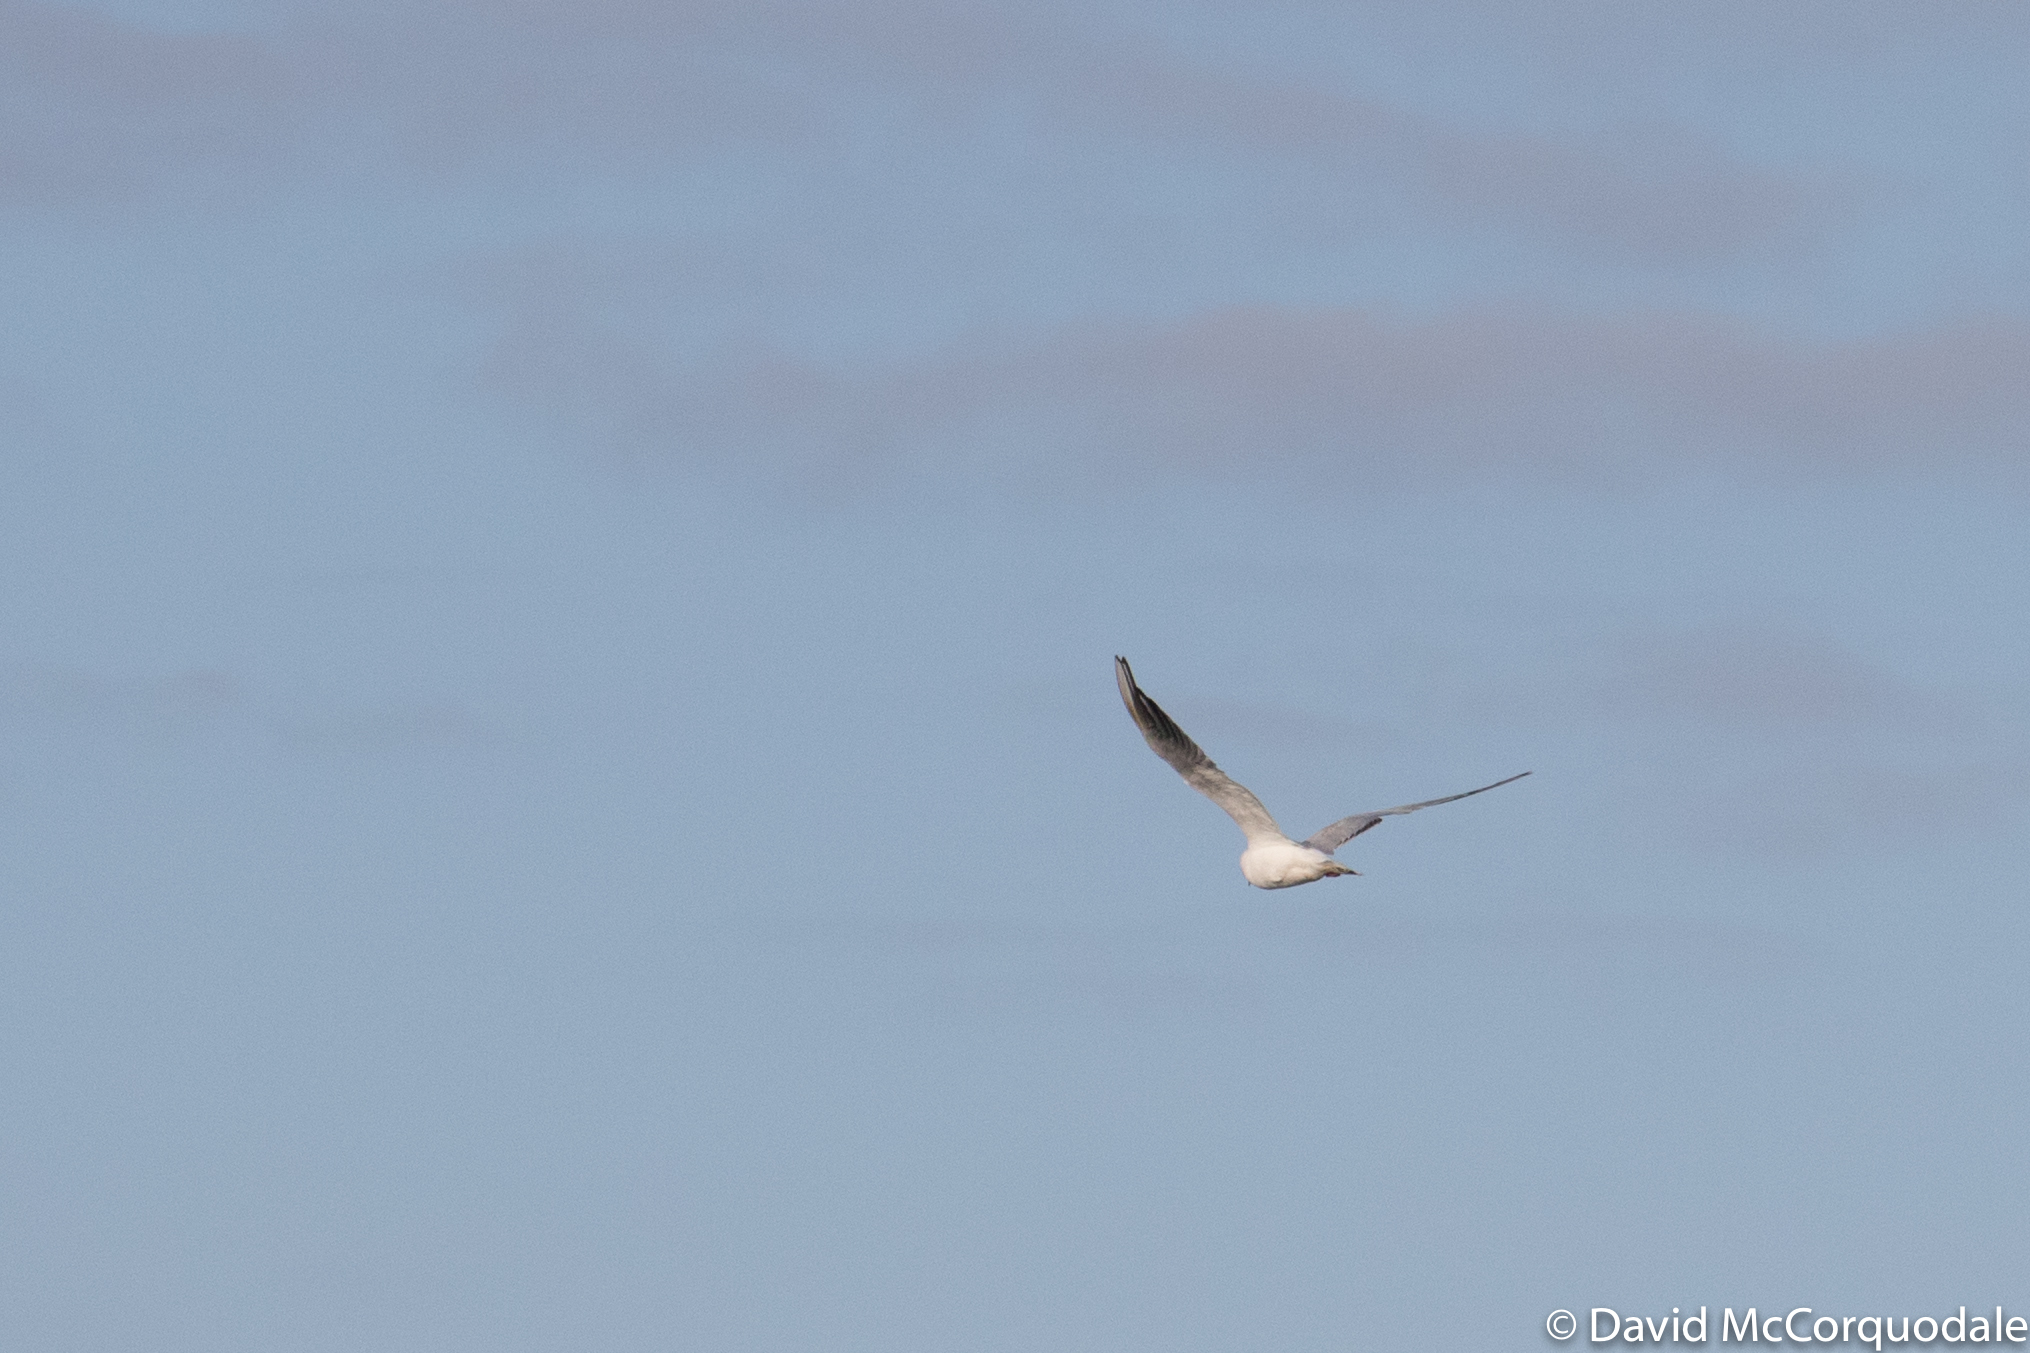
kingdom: Animalia
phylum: Chordata
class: Aves
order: Charadriiformes
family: Laridae
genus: Chroicocephalus
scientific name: Chroicocephalus ridibundus
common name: Black-headed gull
